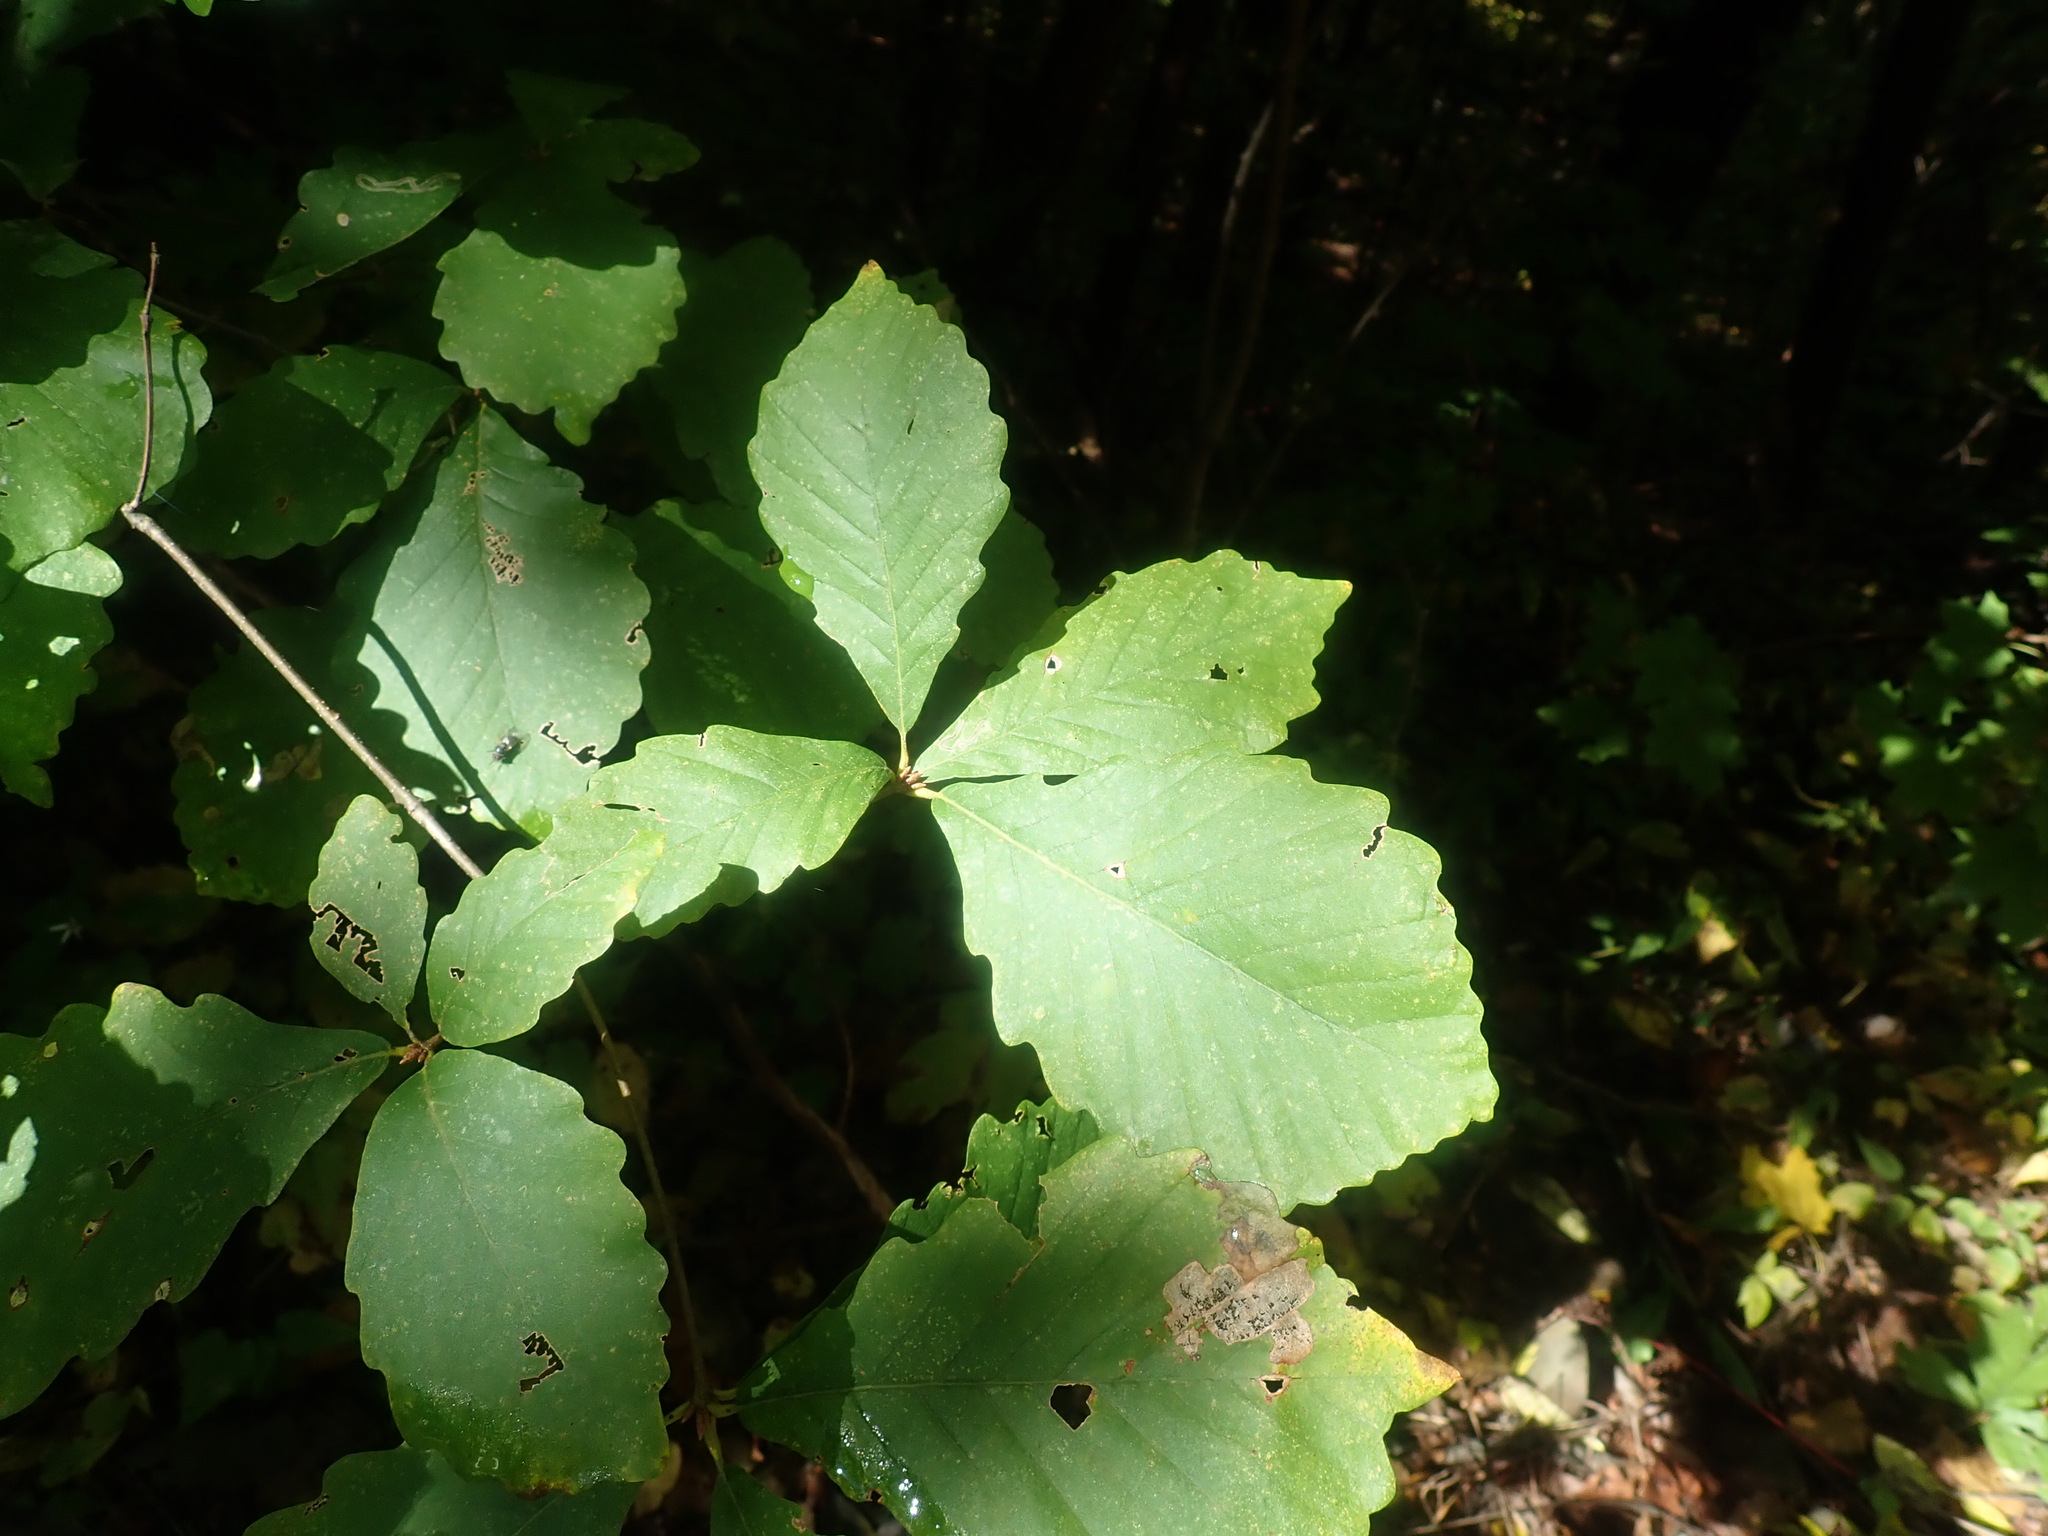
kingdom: Plantae
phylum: Tracheophyta
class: Magnoliopsida
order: Fagales
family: Fagaceae
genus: Quercus
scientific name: Quercus montana
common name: Chestnut oak
